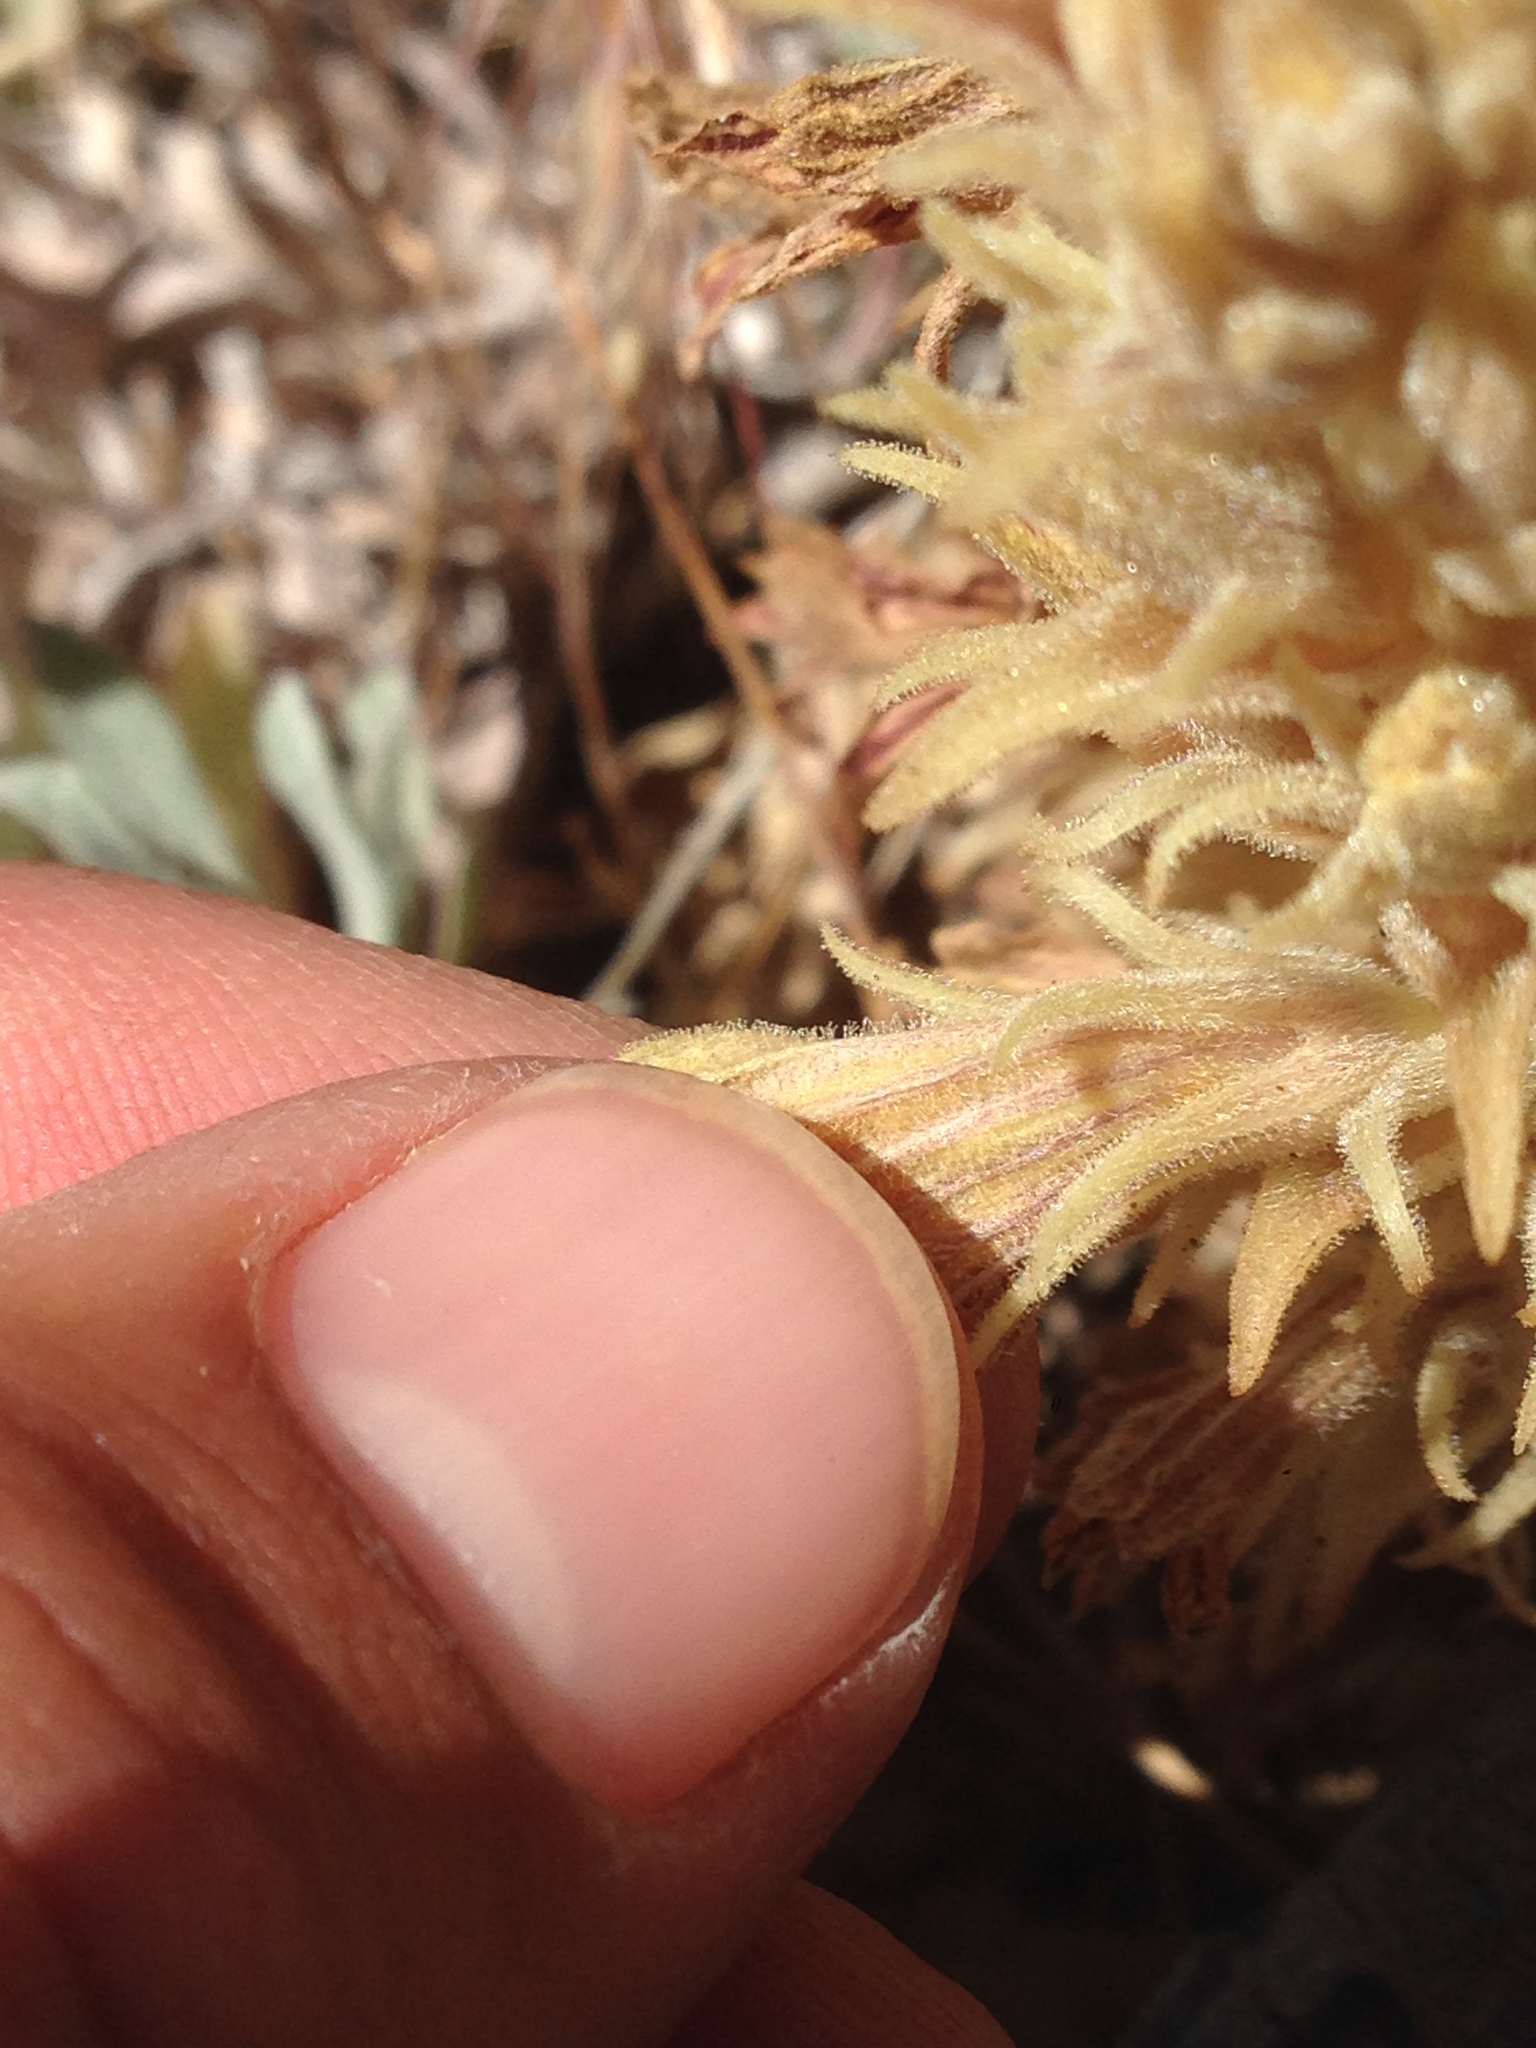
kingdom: Plantae
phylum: Tracheophyta
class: Magnoliopsida
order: Lamiales
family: Orobanchaceae
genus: Aphyllon
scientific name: Aphyllon parishii
